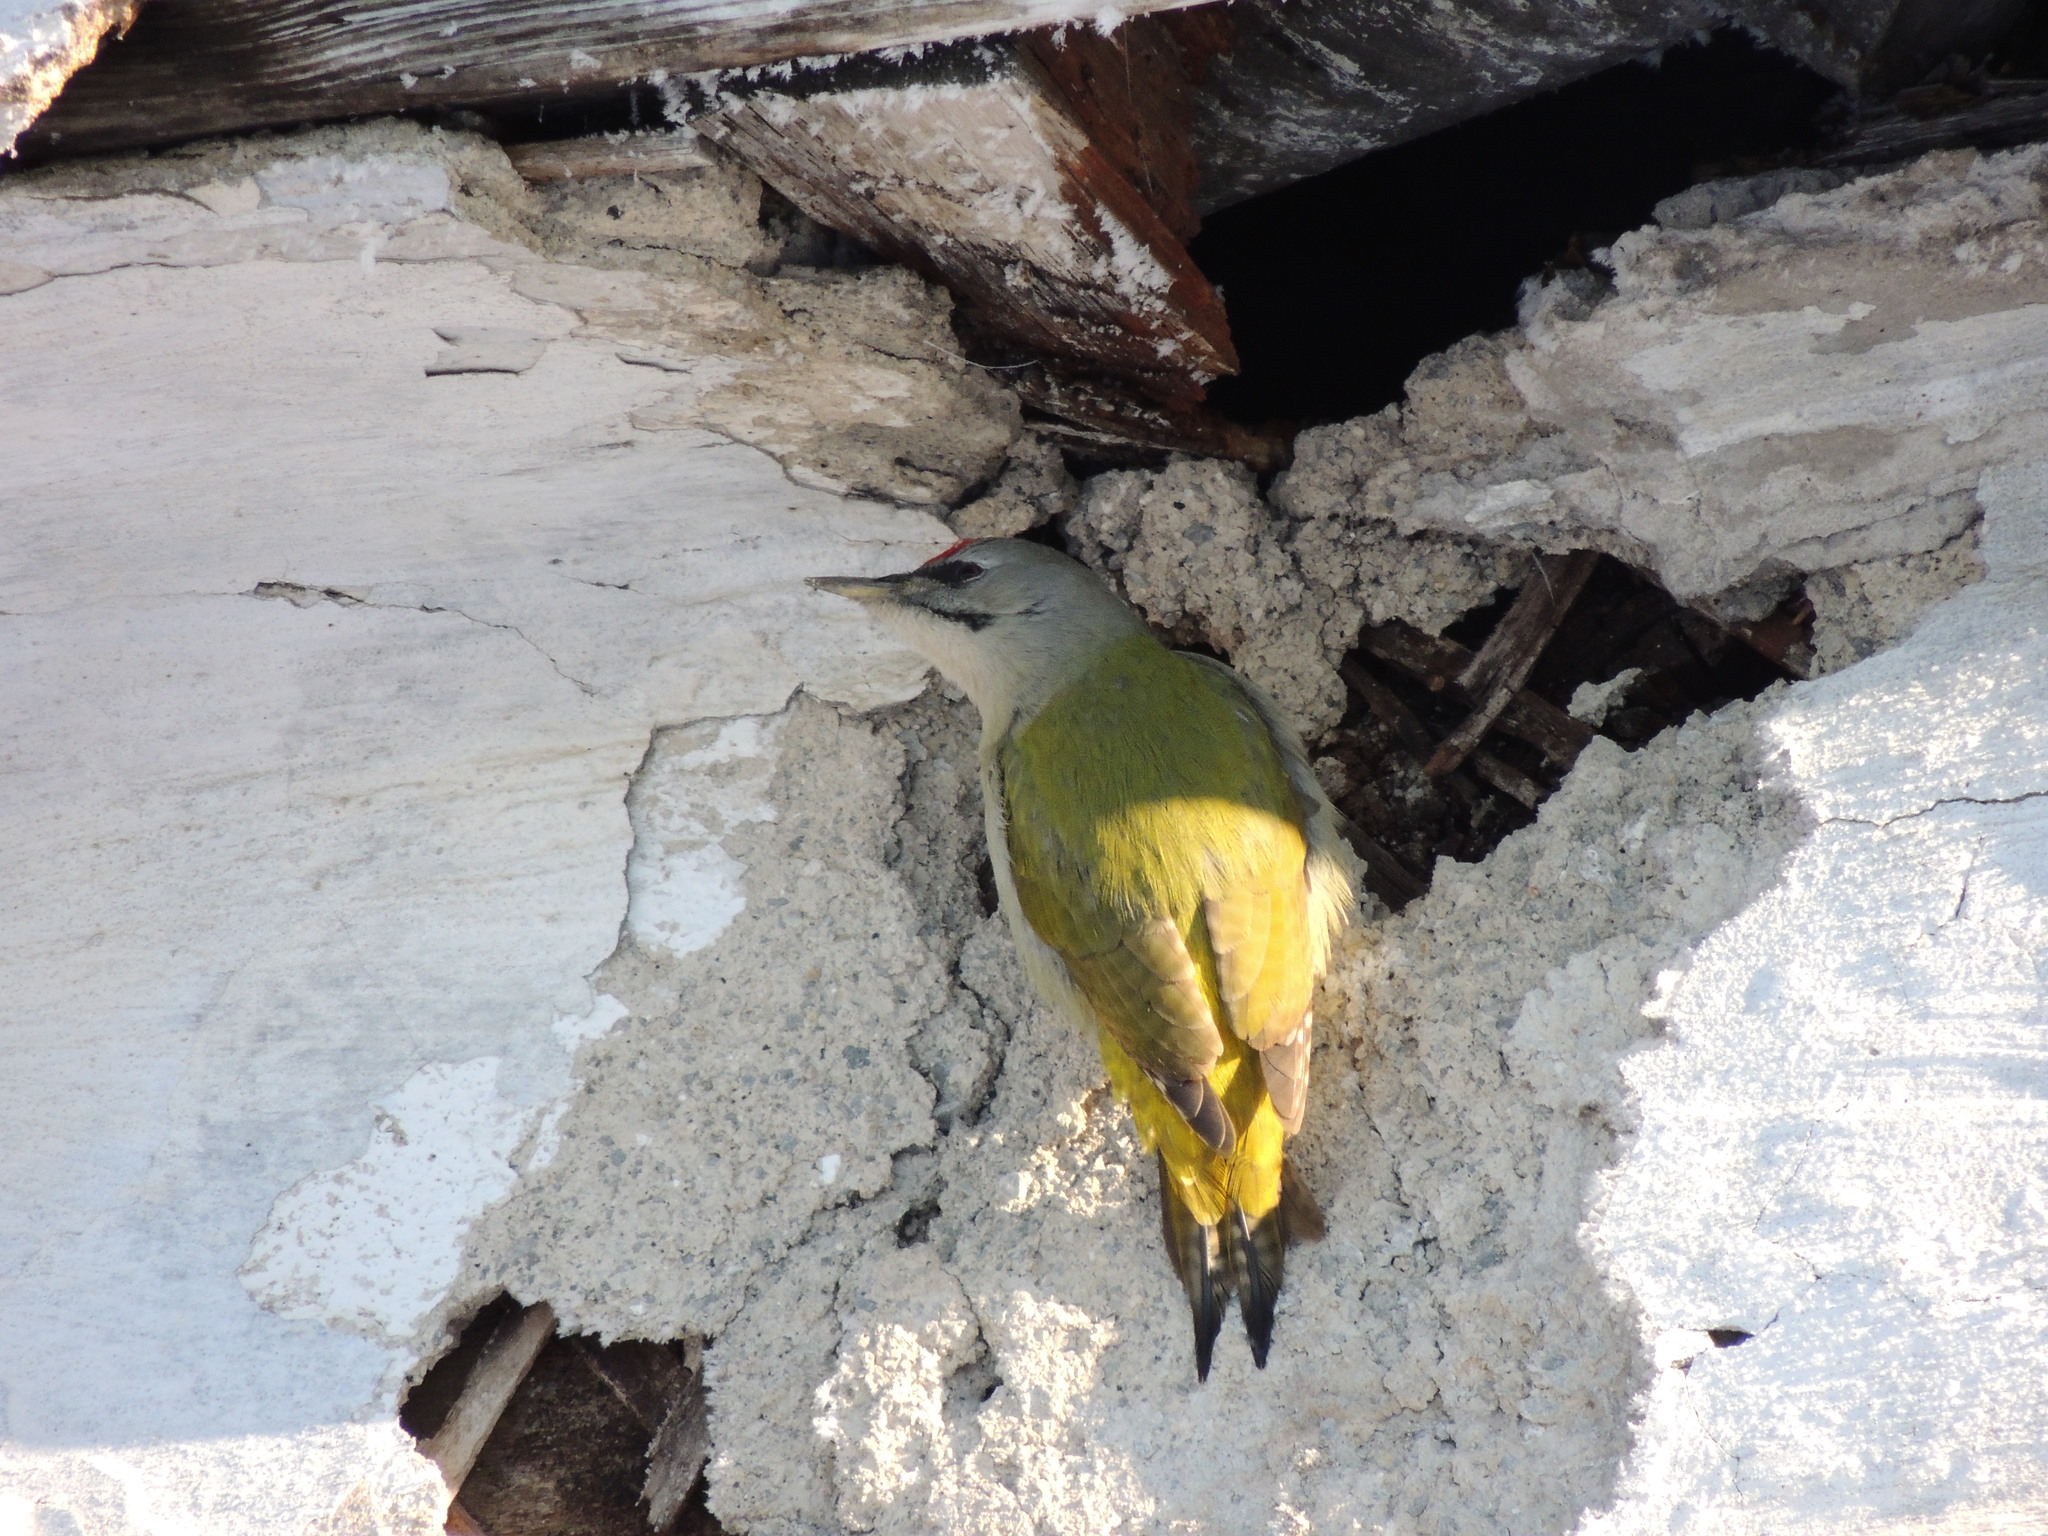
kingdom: Animalia
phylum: Chordata
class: Aves
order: Piciformes
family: Picidae
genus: Picus
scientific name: Picus canus
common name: Grey-headed woodpecker
